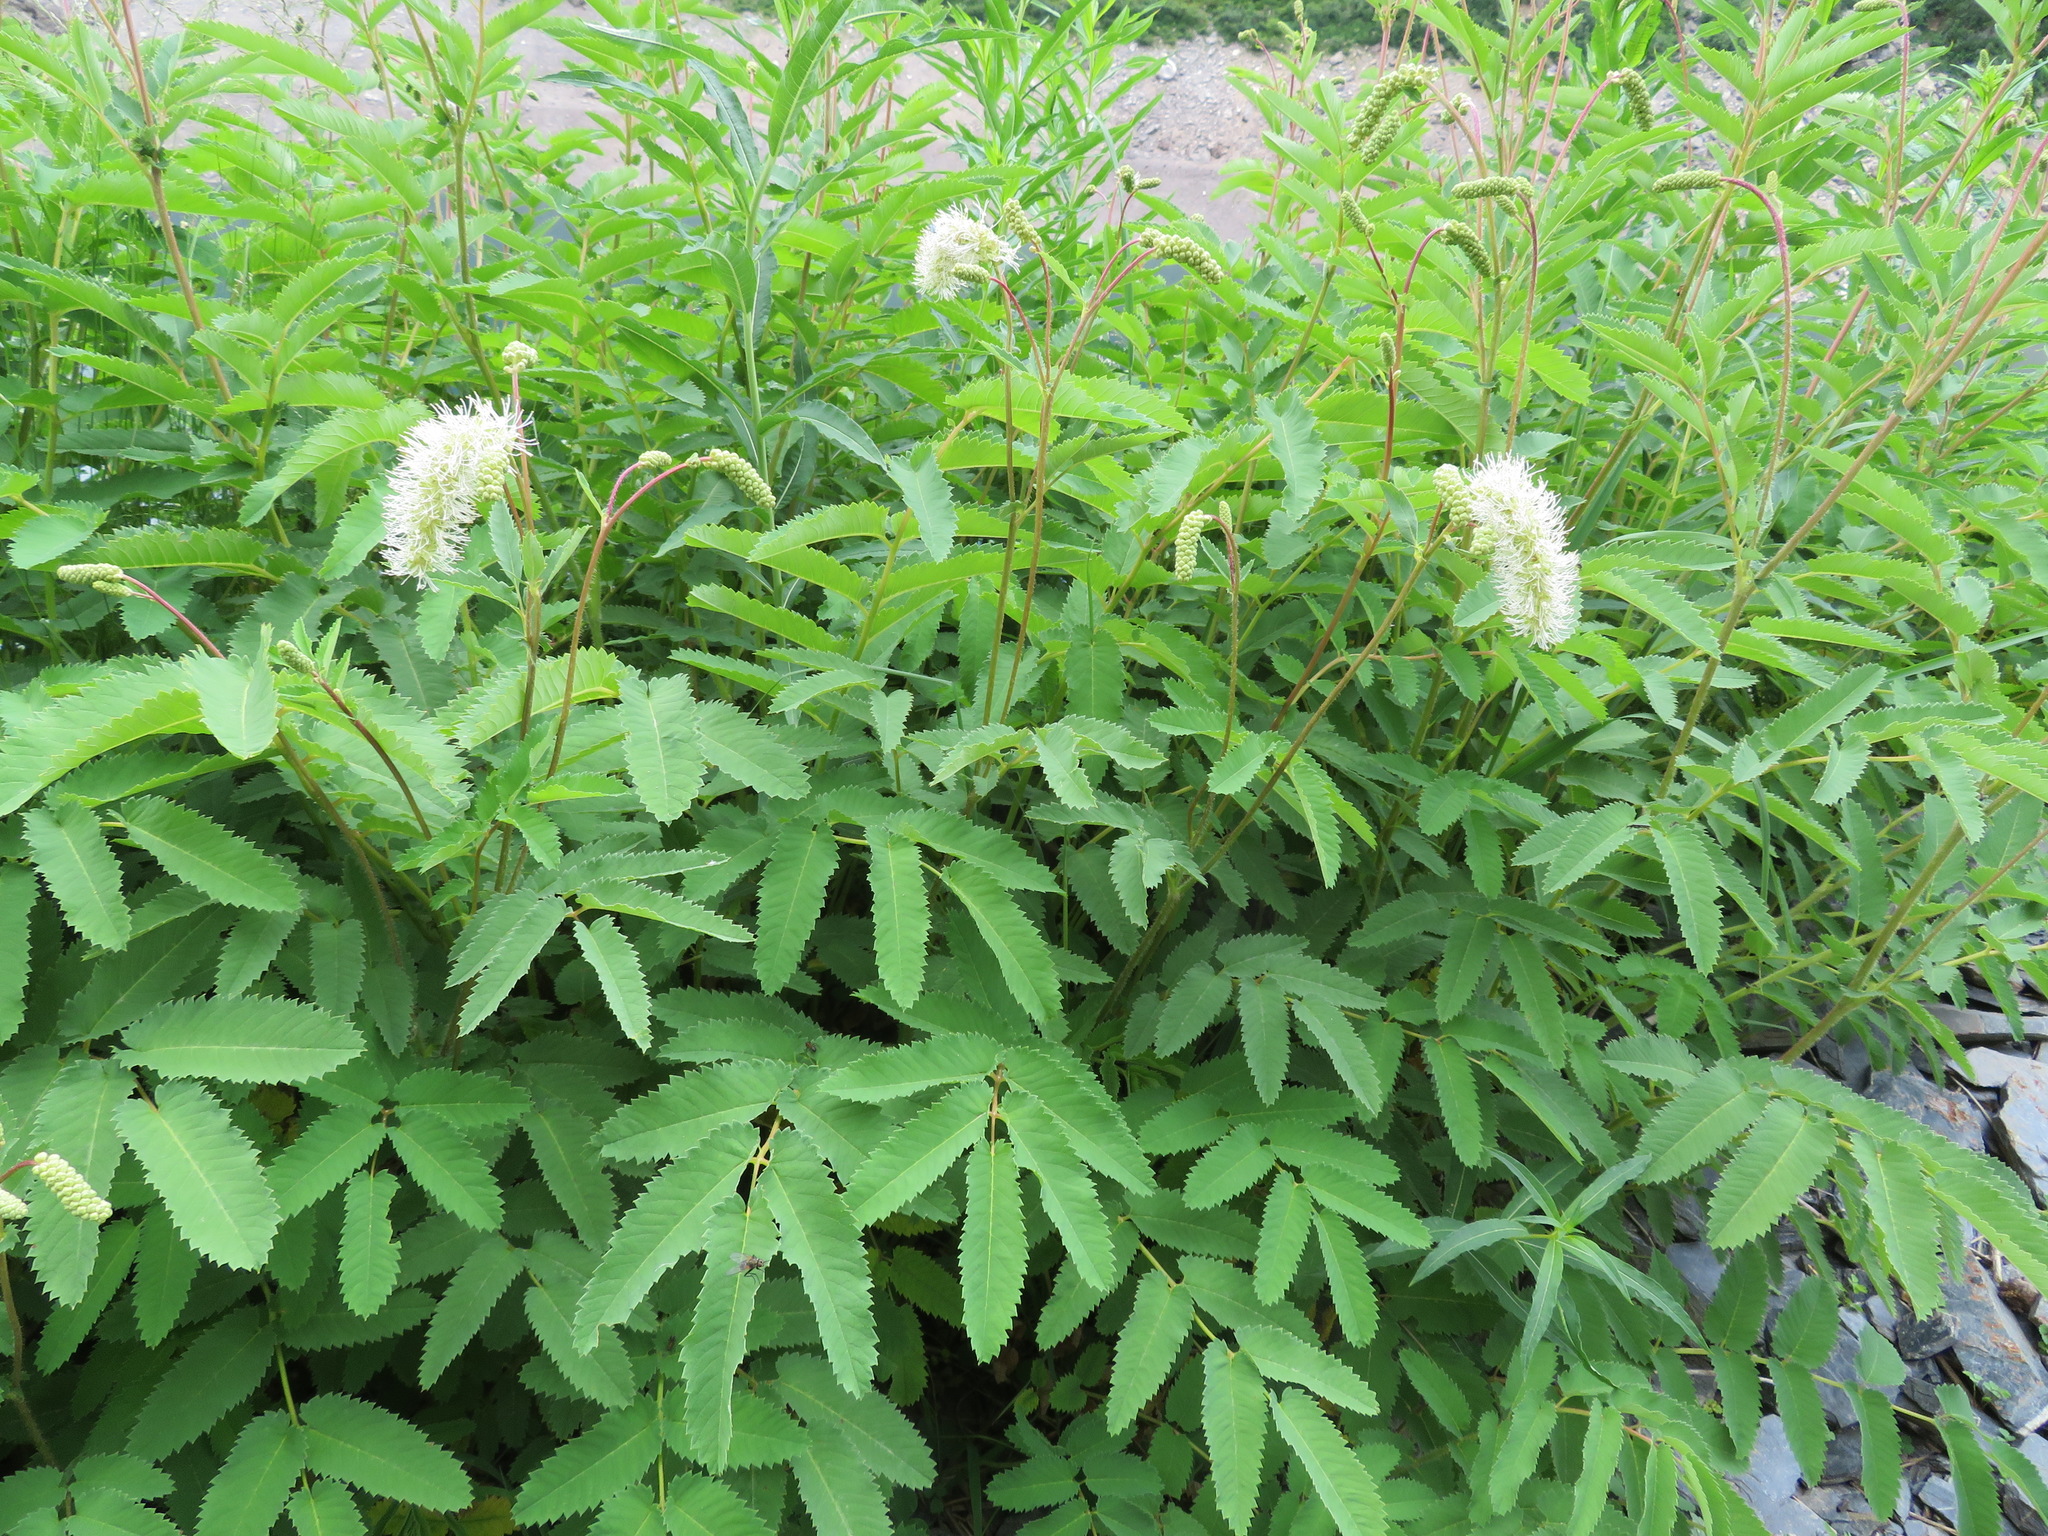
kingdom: Plantae
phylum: Tracheophyta
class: Magnoliopsida
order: Rosales
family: Rosaceae
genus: Poterium
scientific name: Poterium dodecandrum
